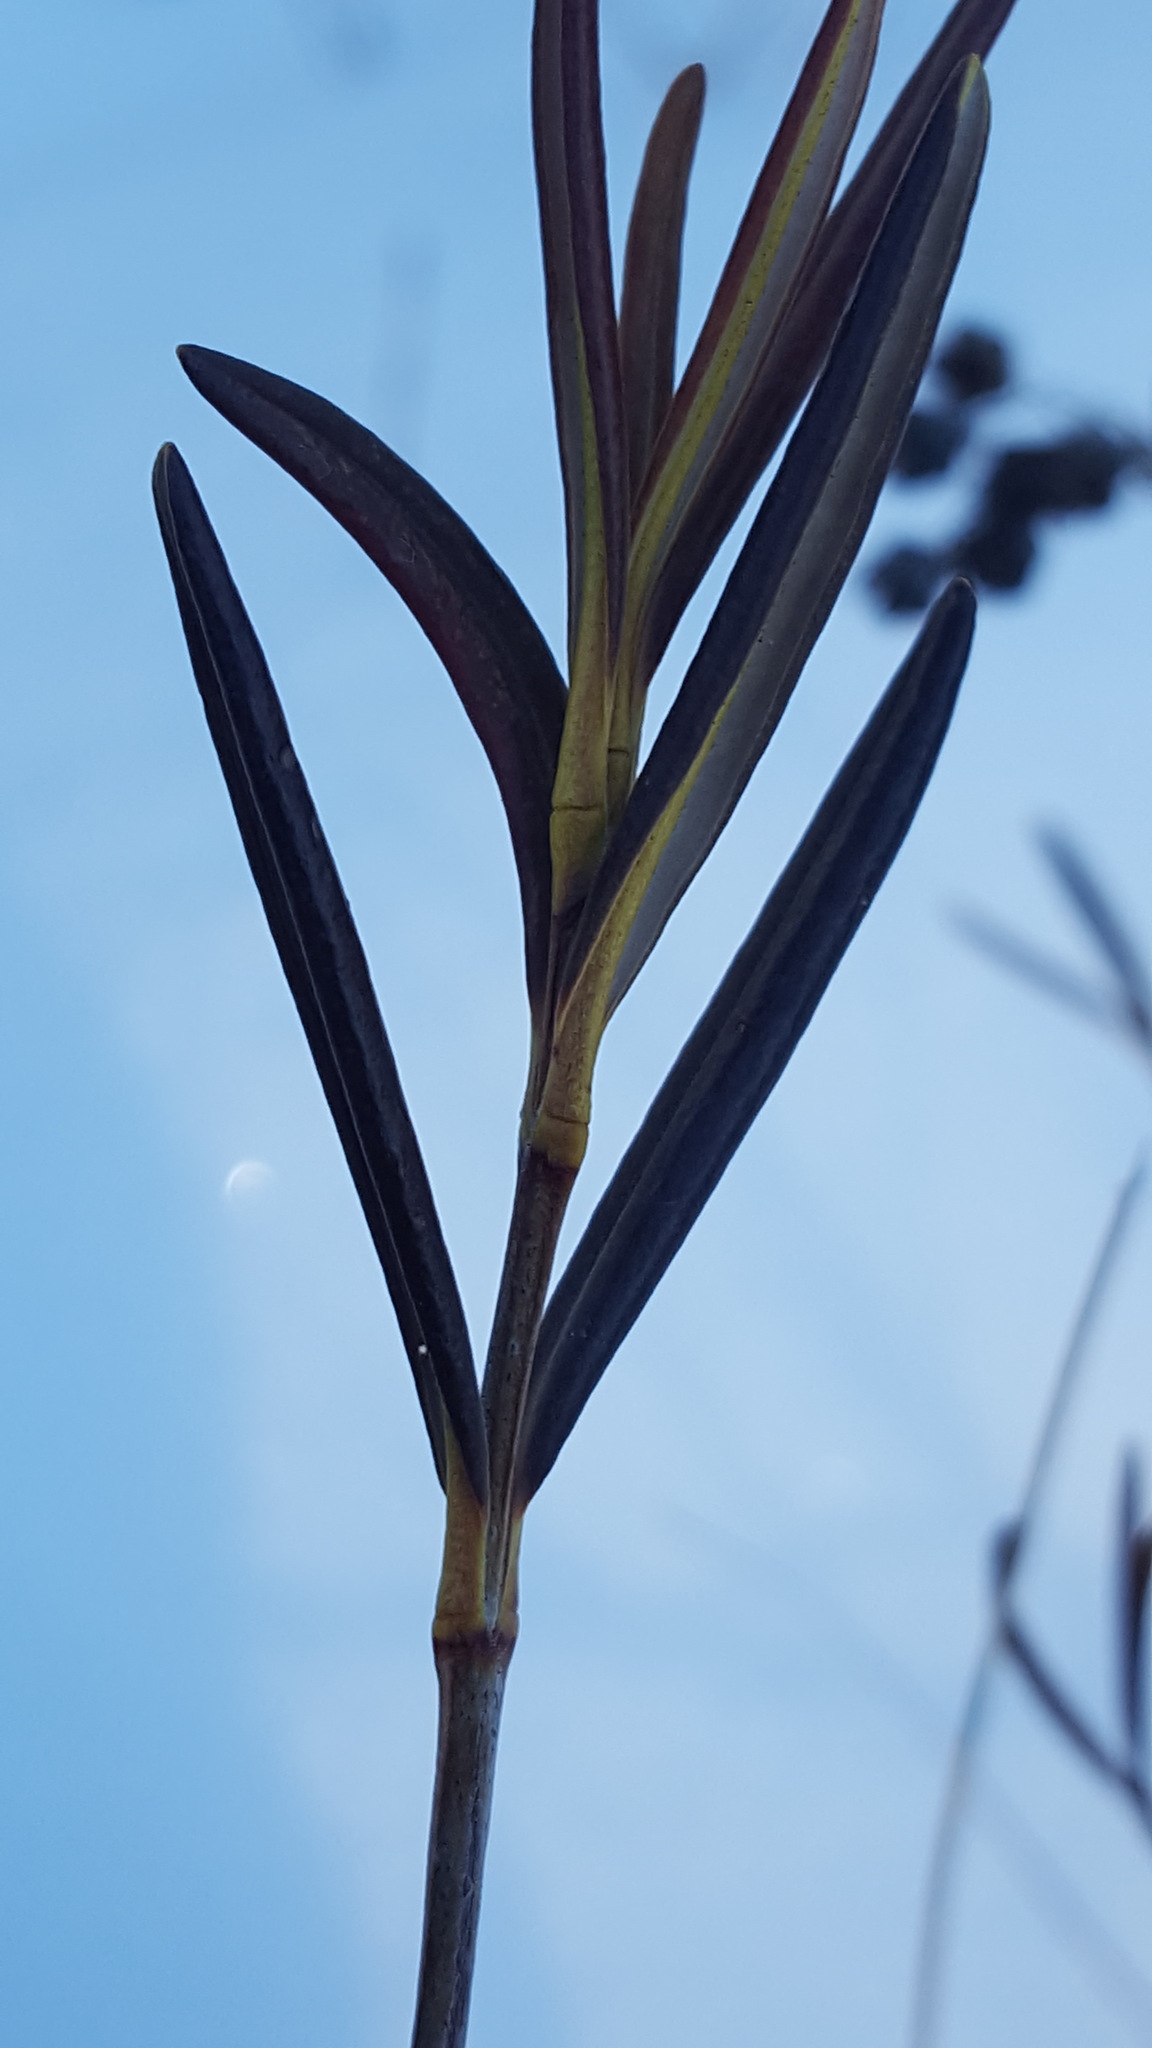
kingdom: Plantae
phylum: Tracheophyta
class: Magnoliopsida
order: Ericales
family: Ericaceae
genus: Kalmia
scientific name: Kalmia polifolia
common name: Bog-laurel
